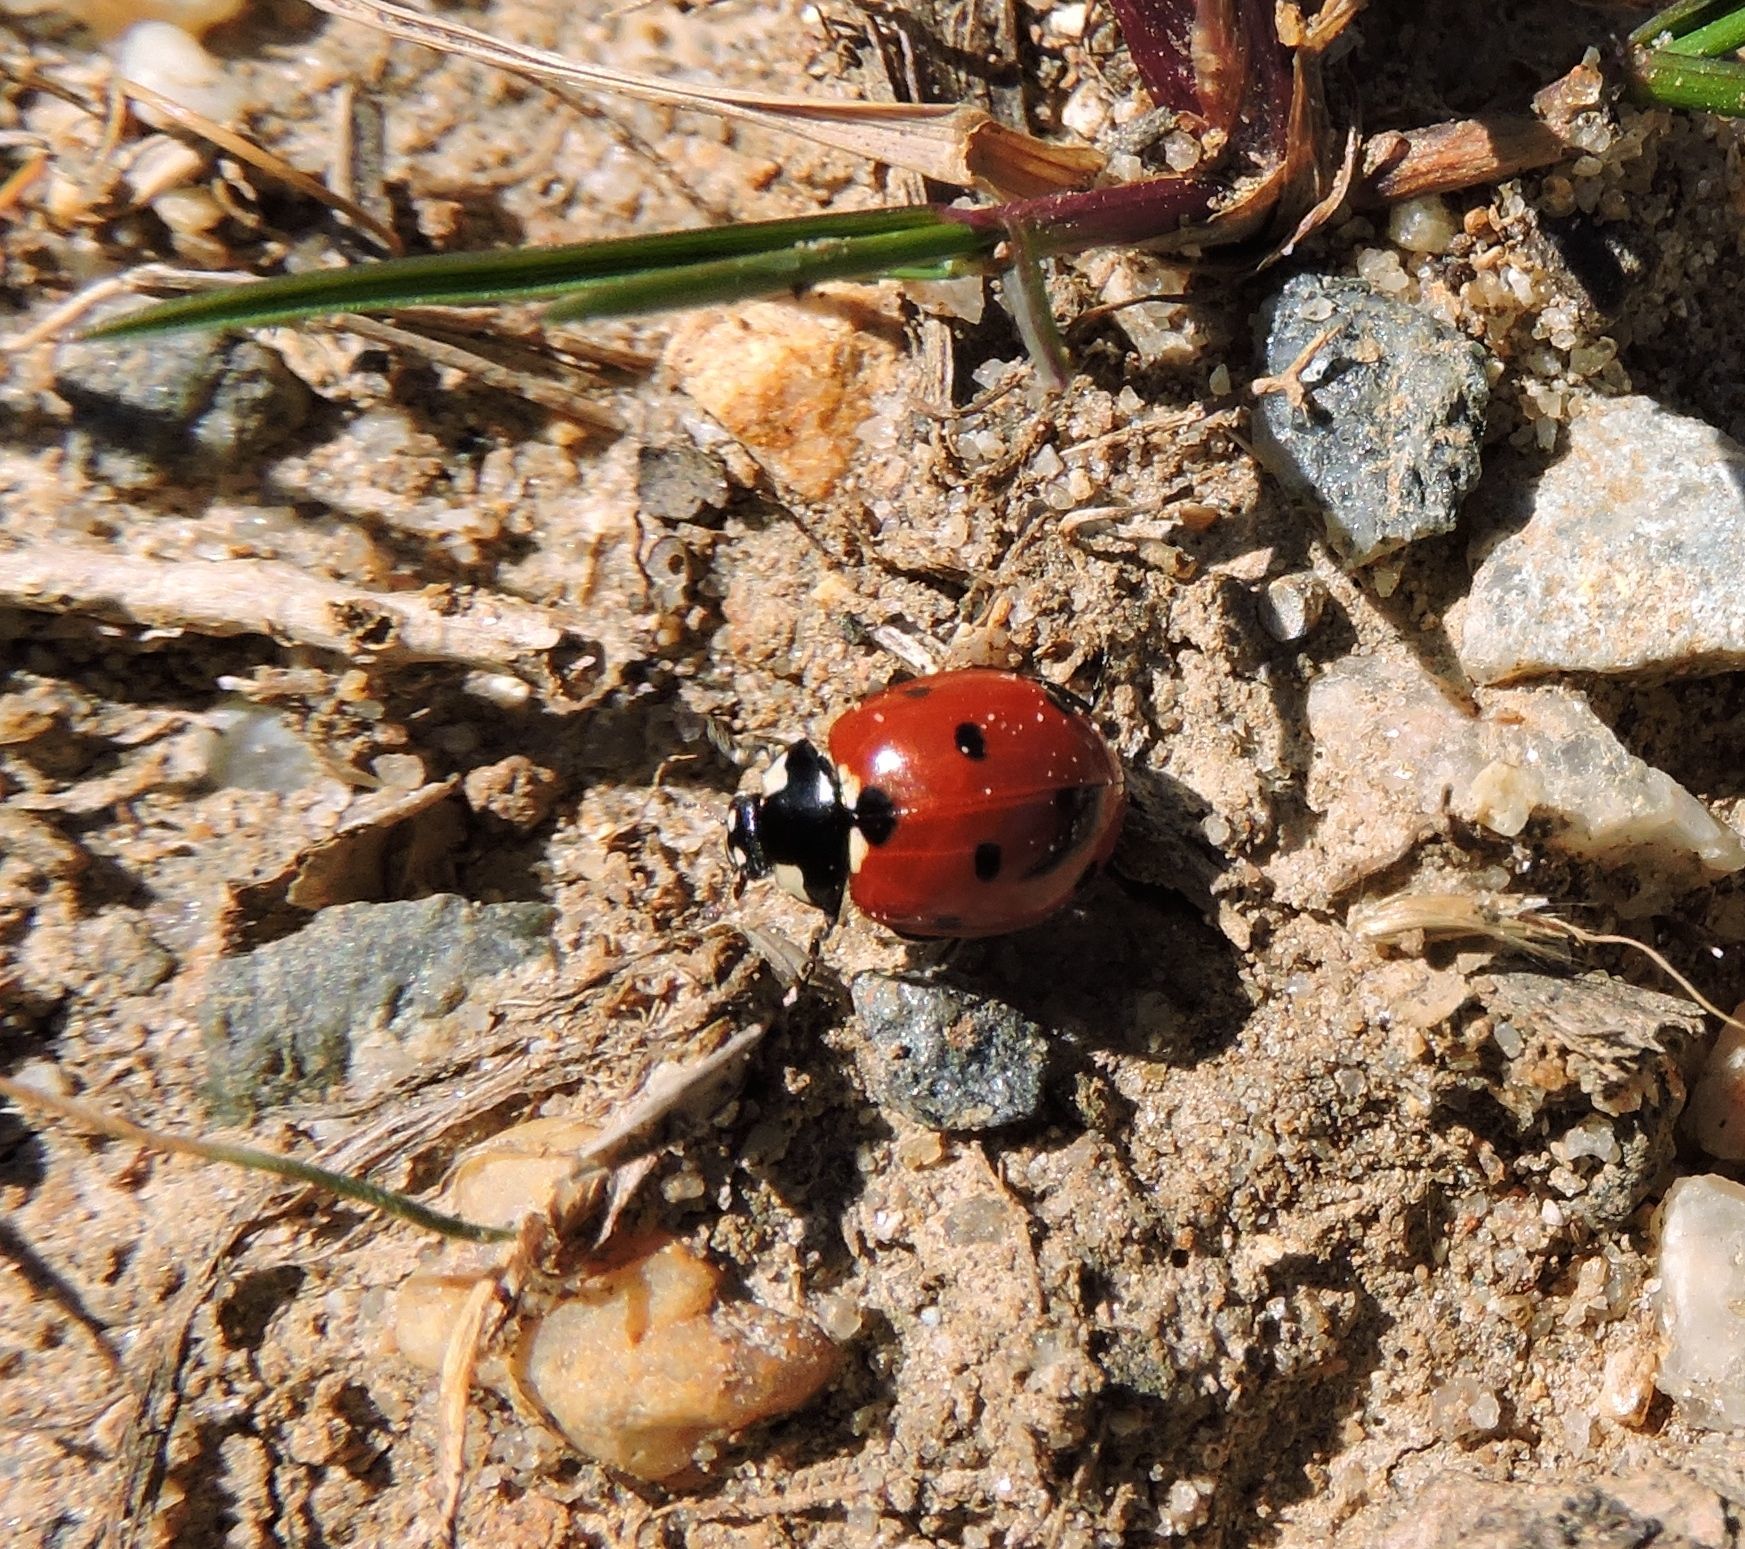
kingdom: Animalia
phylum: Arthropoda
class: Insecta
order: Coleoptera
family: Coccinellidae
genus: Coccinella
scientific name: Coccinella septempunctata
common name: Sevenspotted lady beetle
